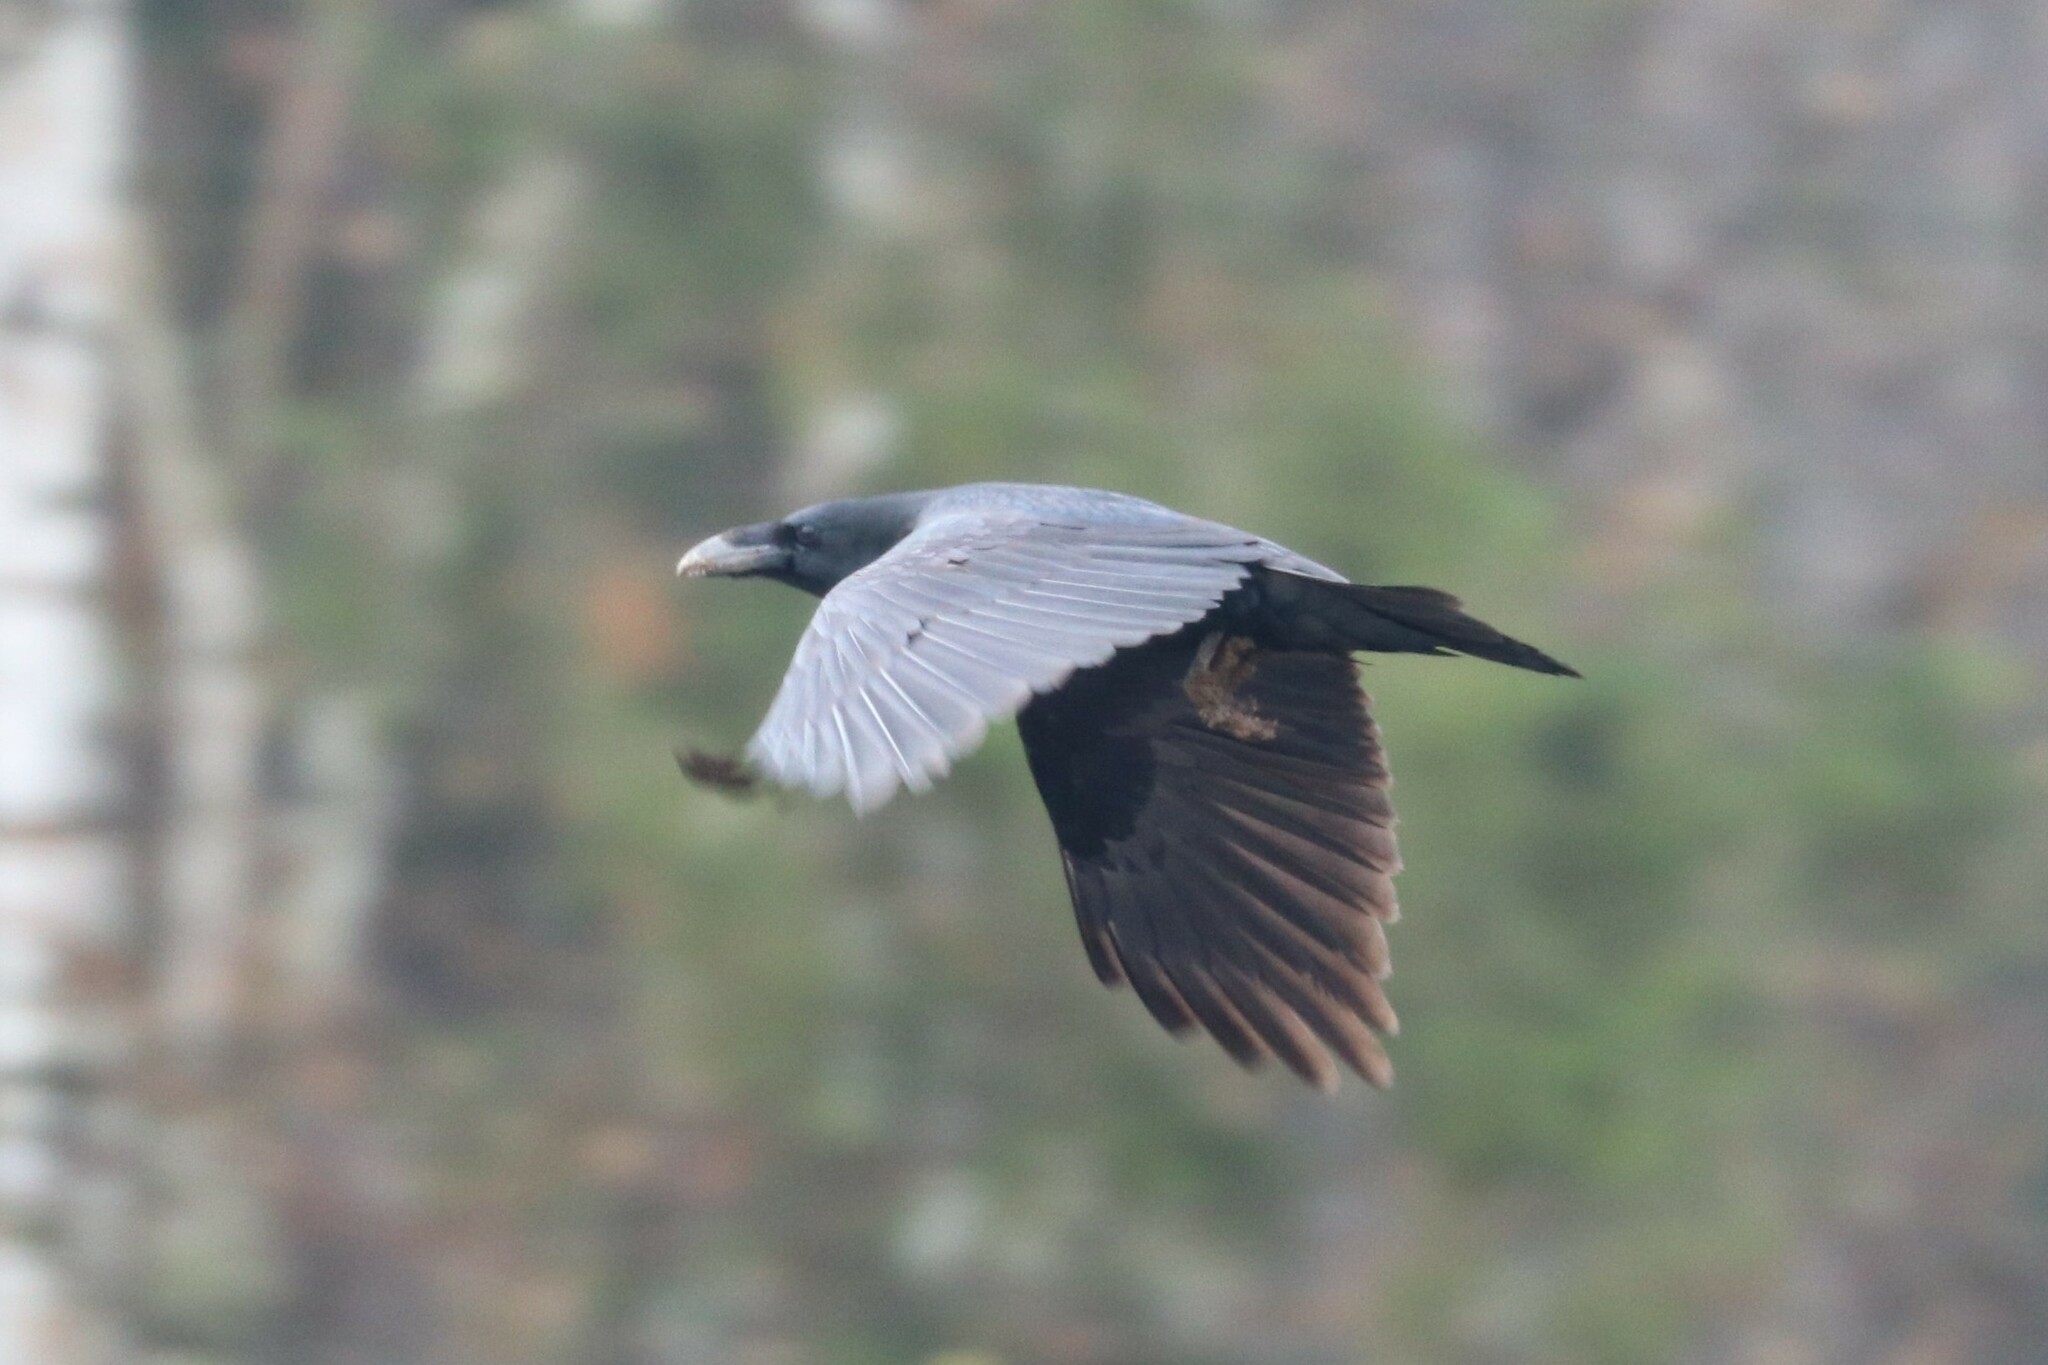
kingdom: Animalia
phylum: Chordata
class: Aves
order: Passeriformes
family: Corvidae
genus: Corvus
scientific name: Corvus corax
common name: Common raven
